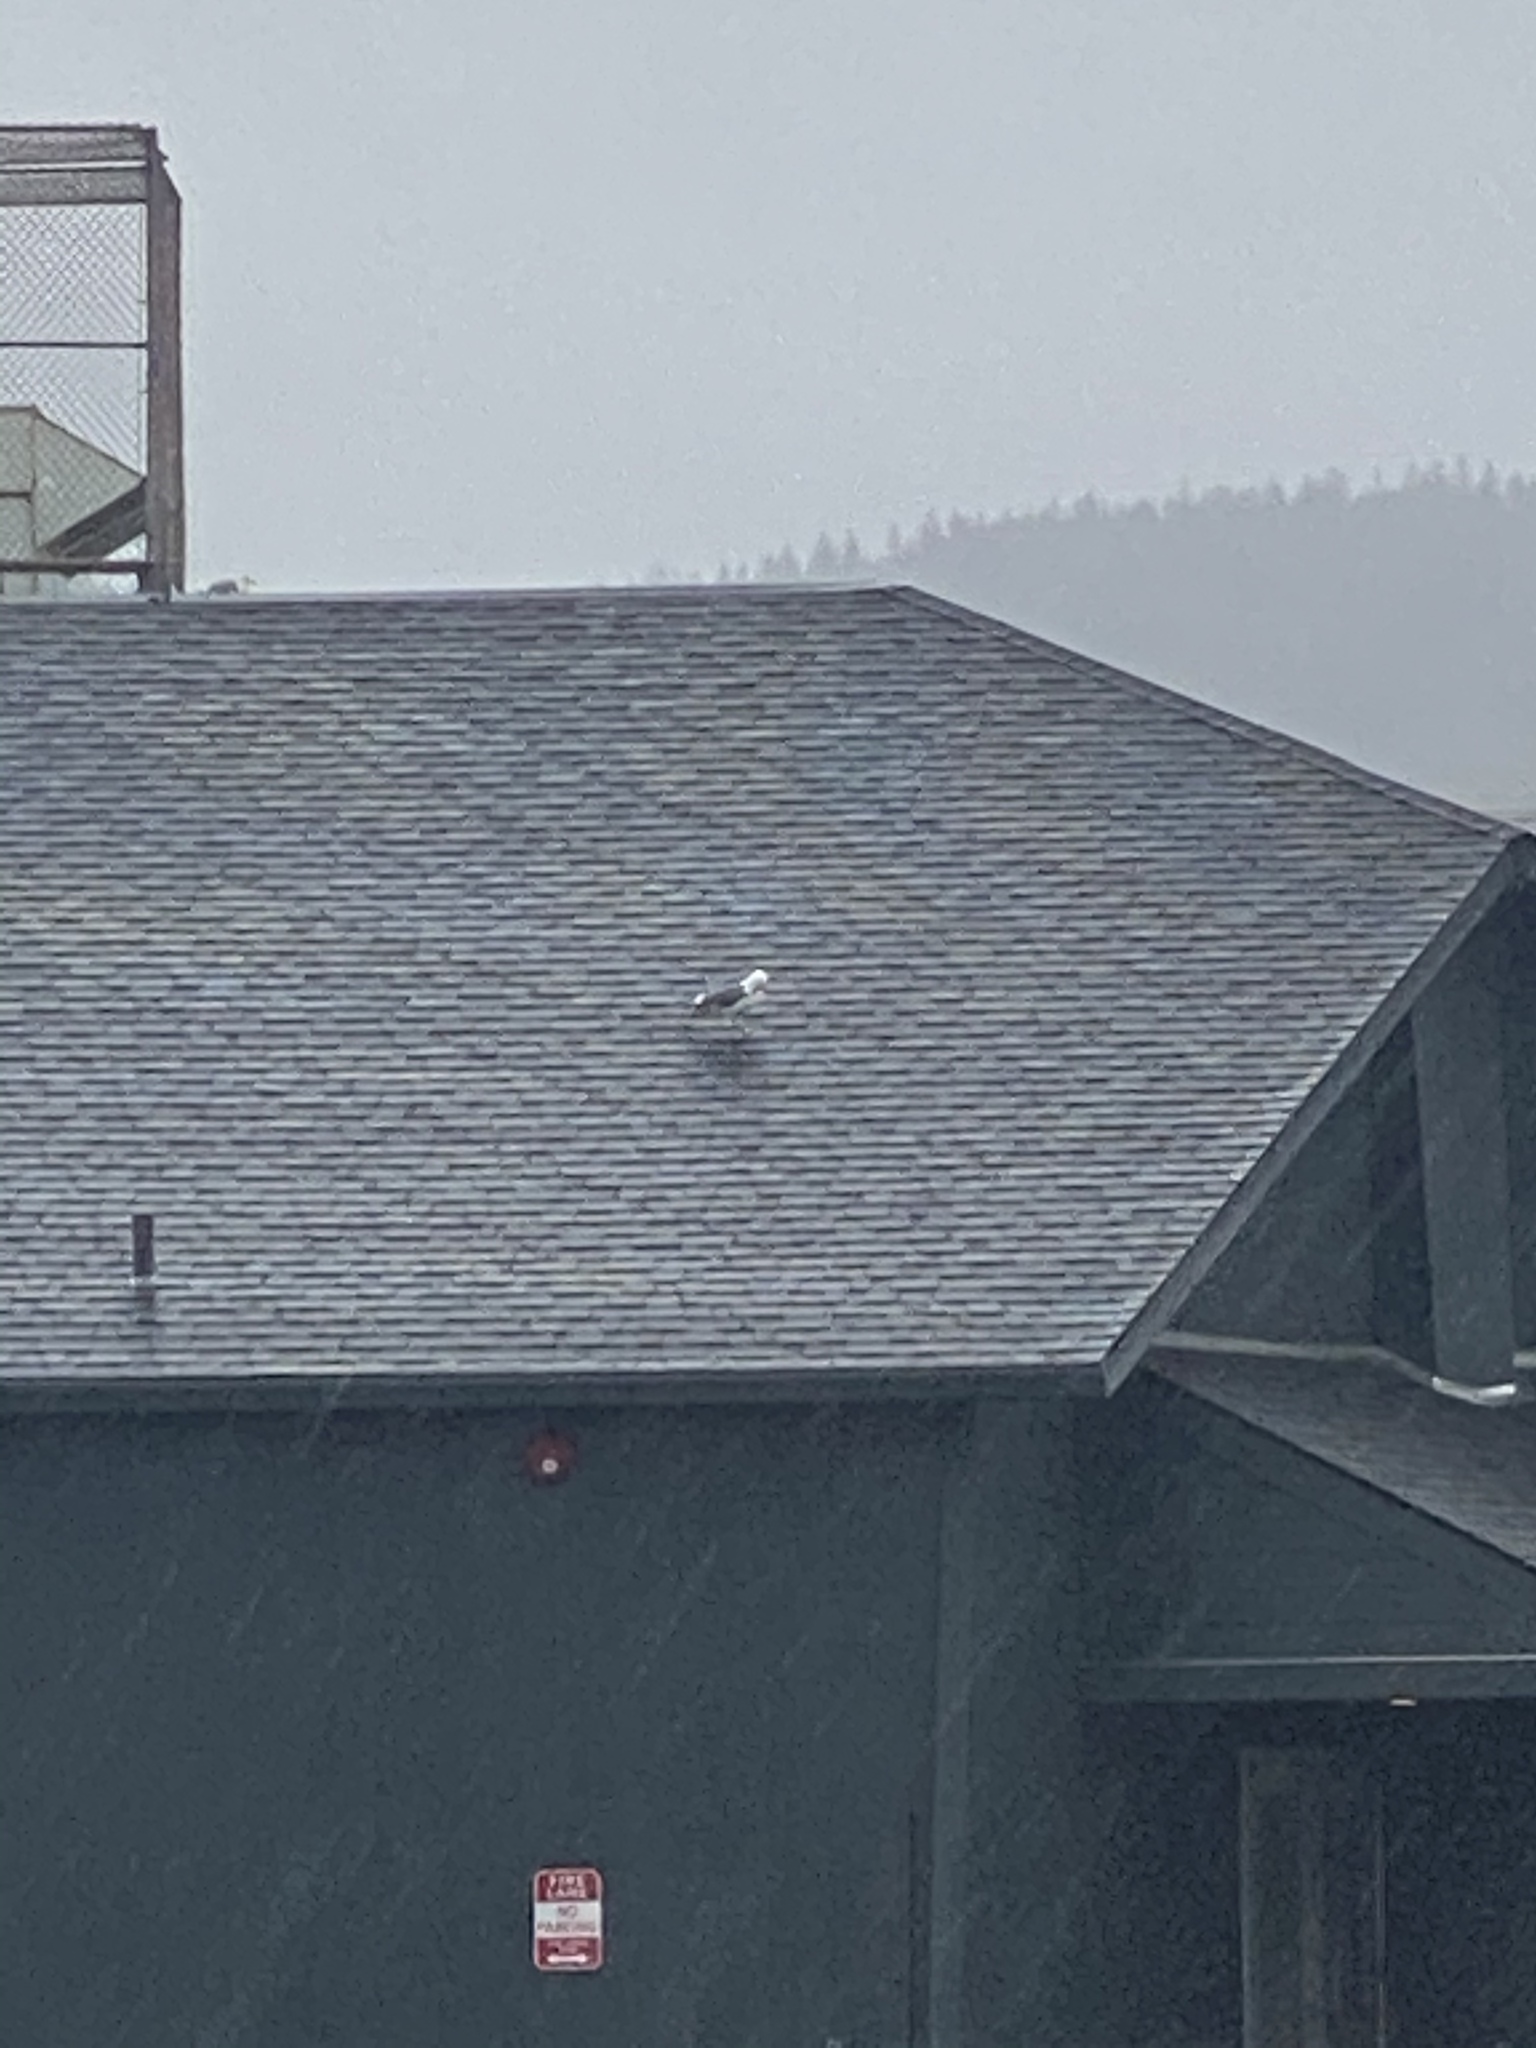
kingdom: Animalia
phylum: Chordata
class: Aves
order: Charadriiformes
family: Laridae
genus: Larus
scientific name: Larus occidentalis
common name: Western gull
